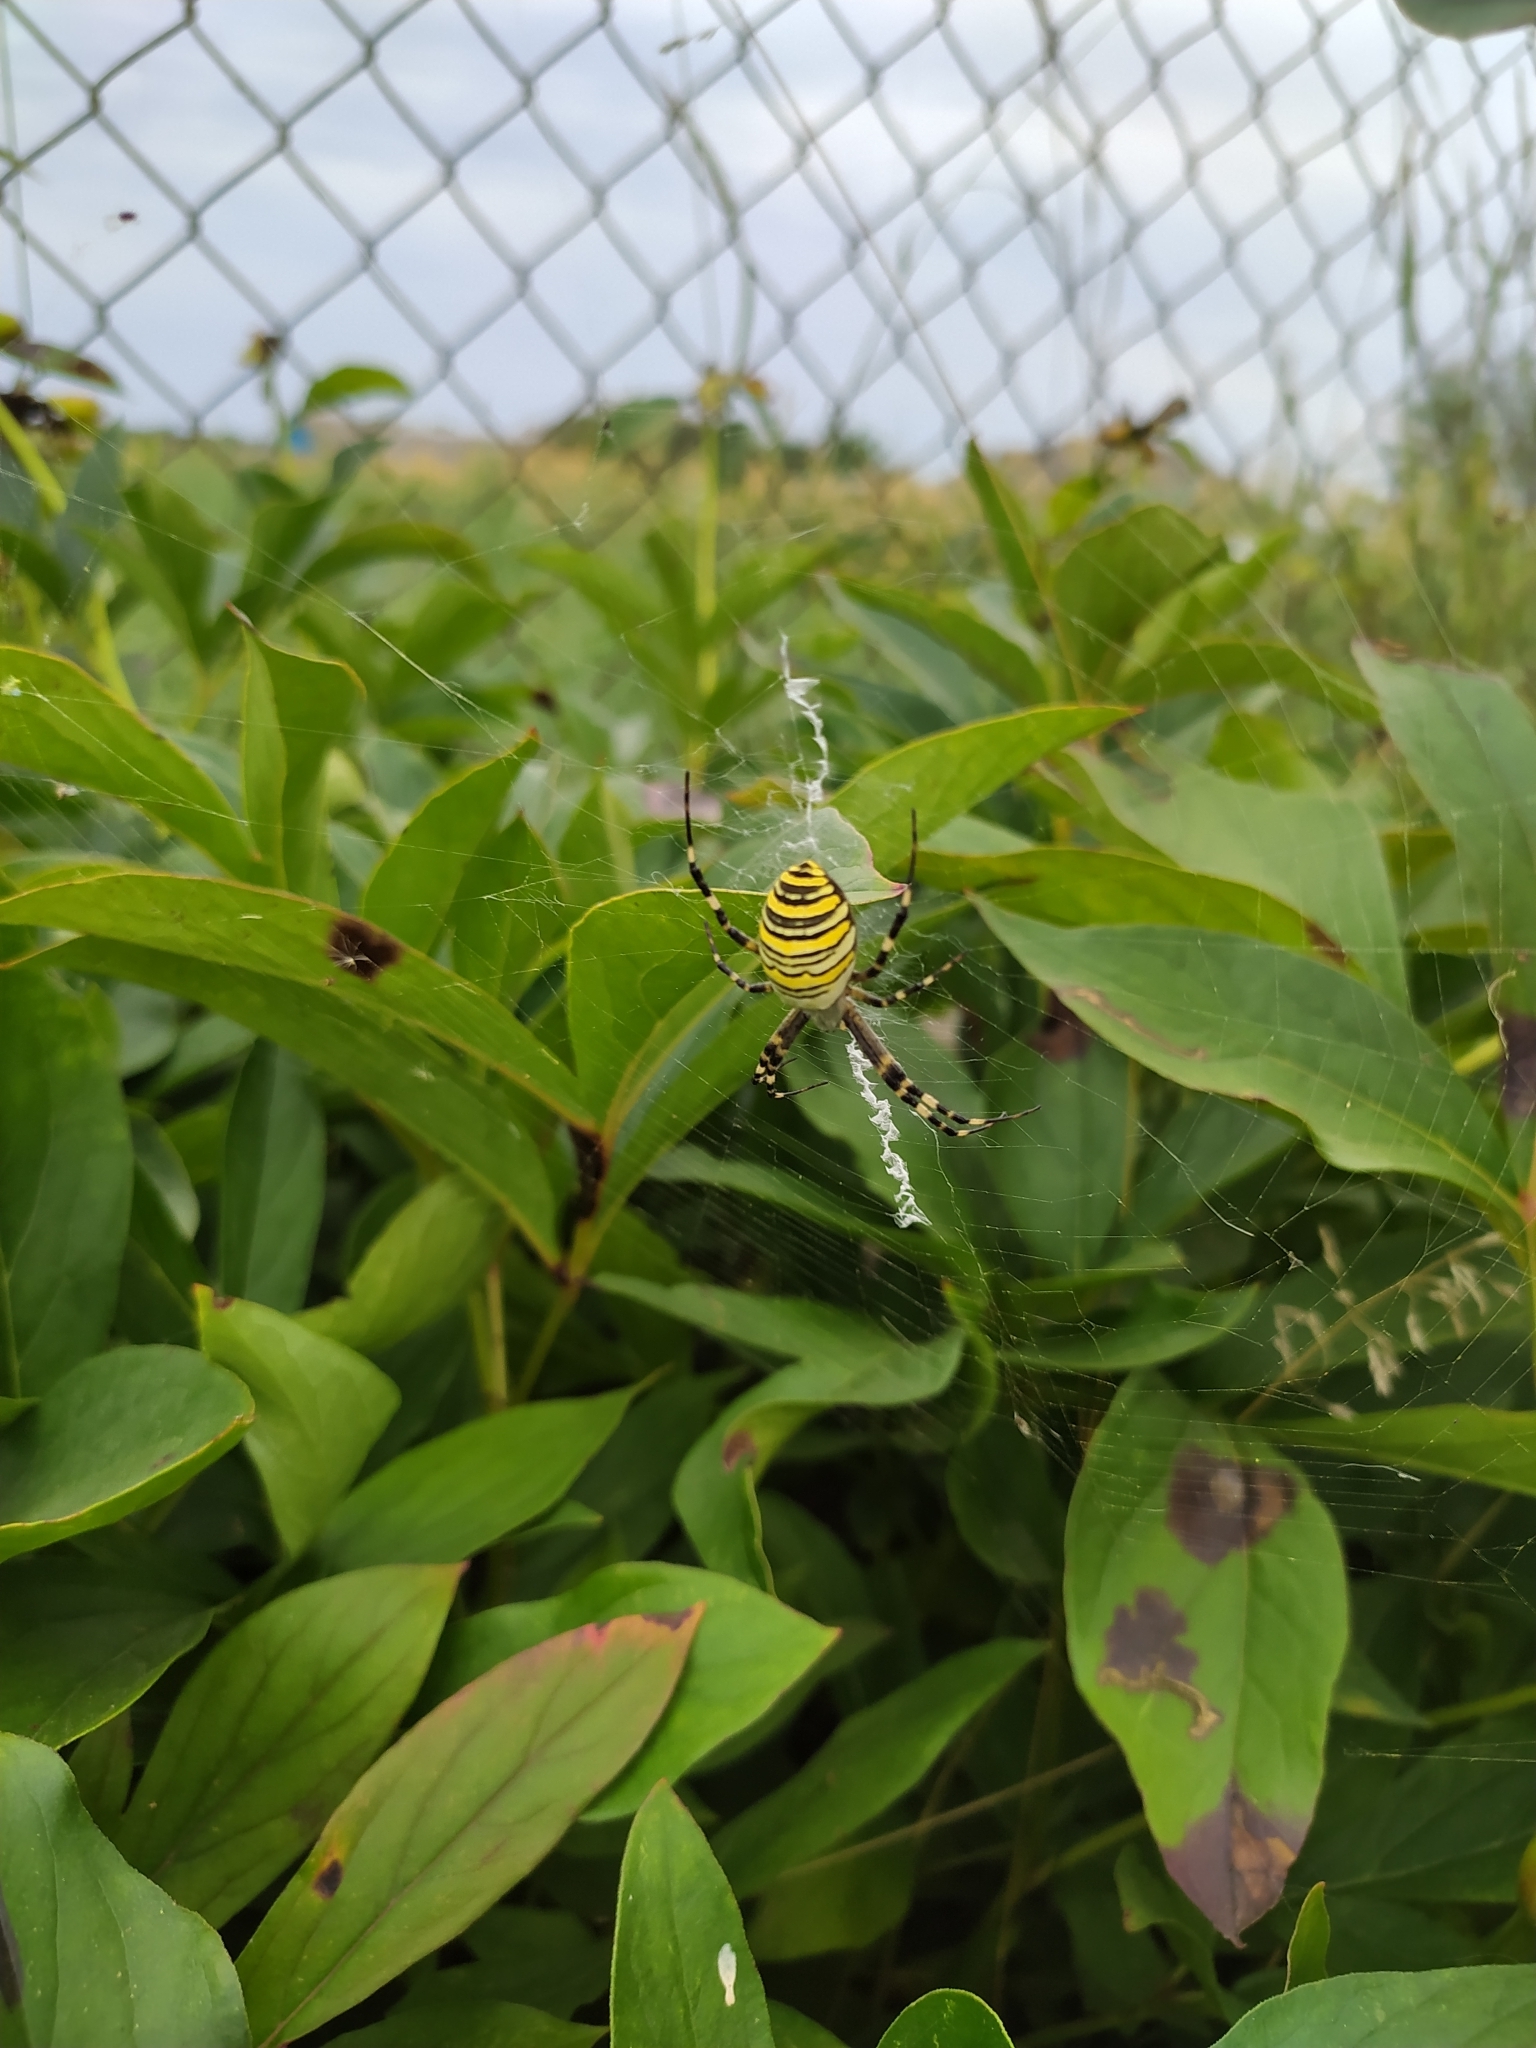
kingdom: Animalia
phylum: Arthropoda
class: Arachnida
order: Araneae
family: Araneidae
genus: Argiope
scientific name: Argiope bruennichi
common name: Wasp spider
